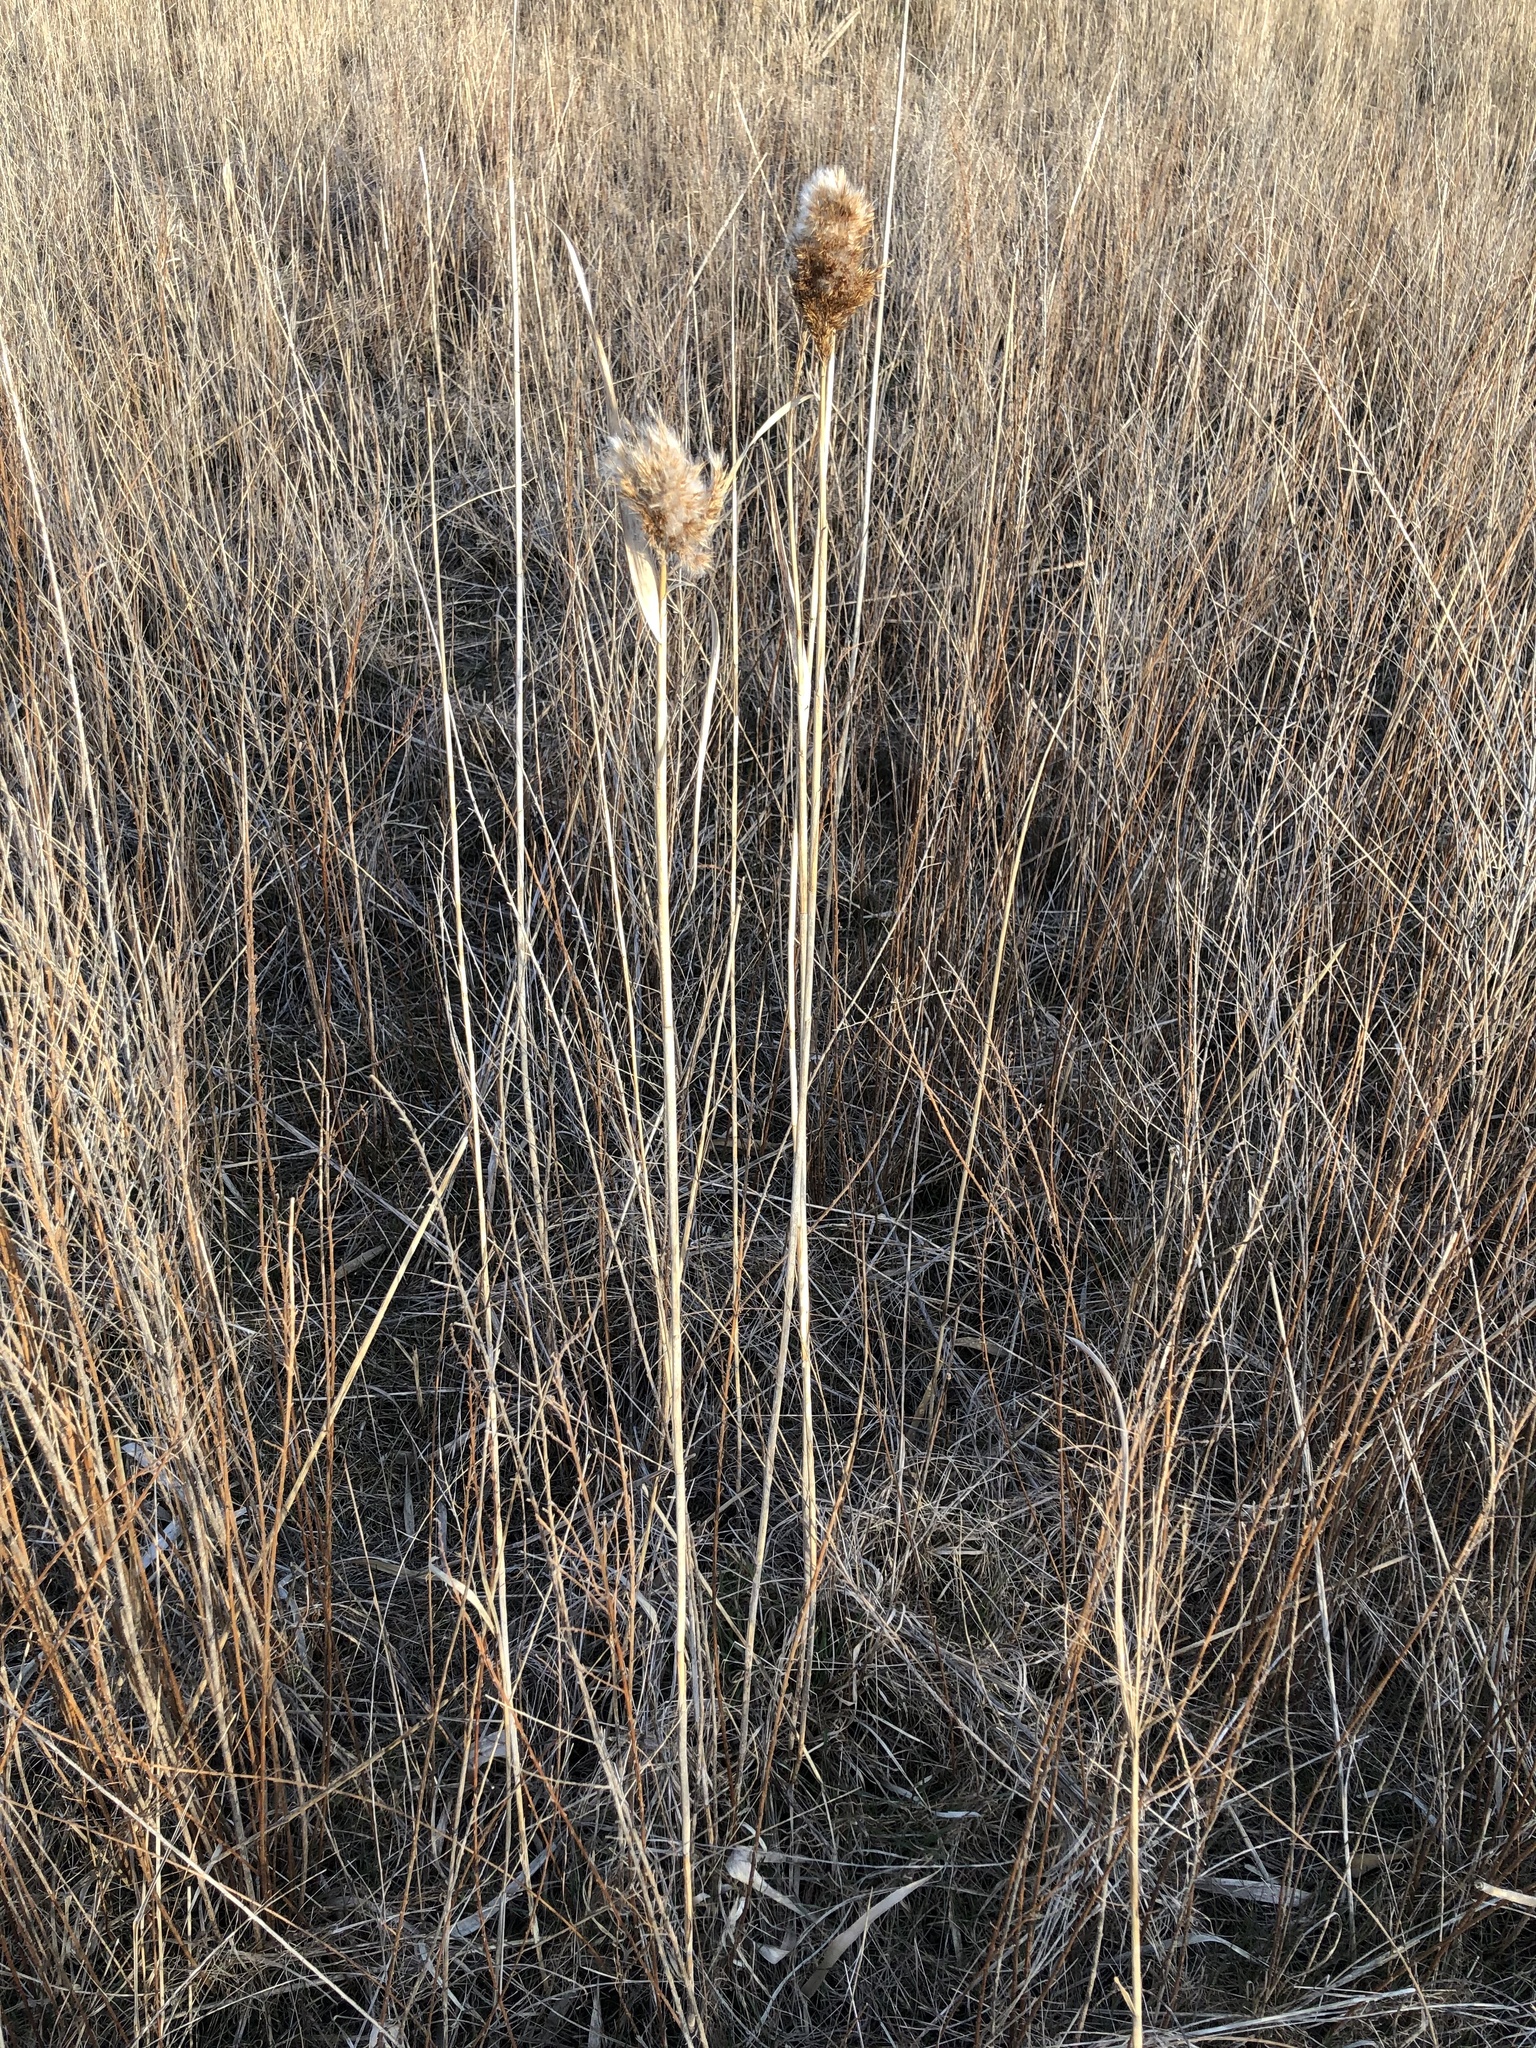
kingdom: Plantae
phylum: Tracheophyta
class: Liliopsida
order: Poales
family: Poaceae
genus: Phragmites
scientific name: Phragmites australis
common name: Common reed
